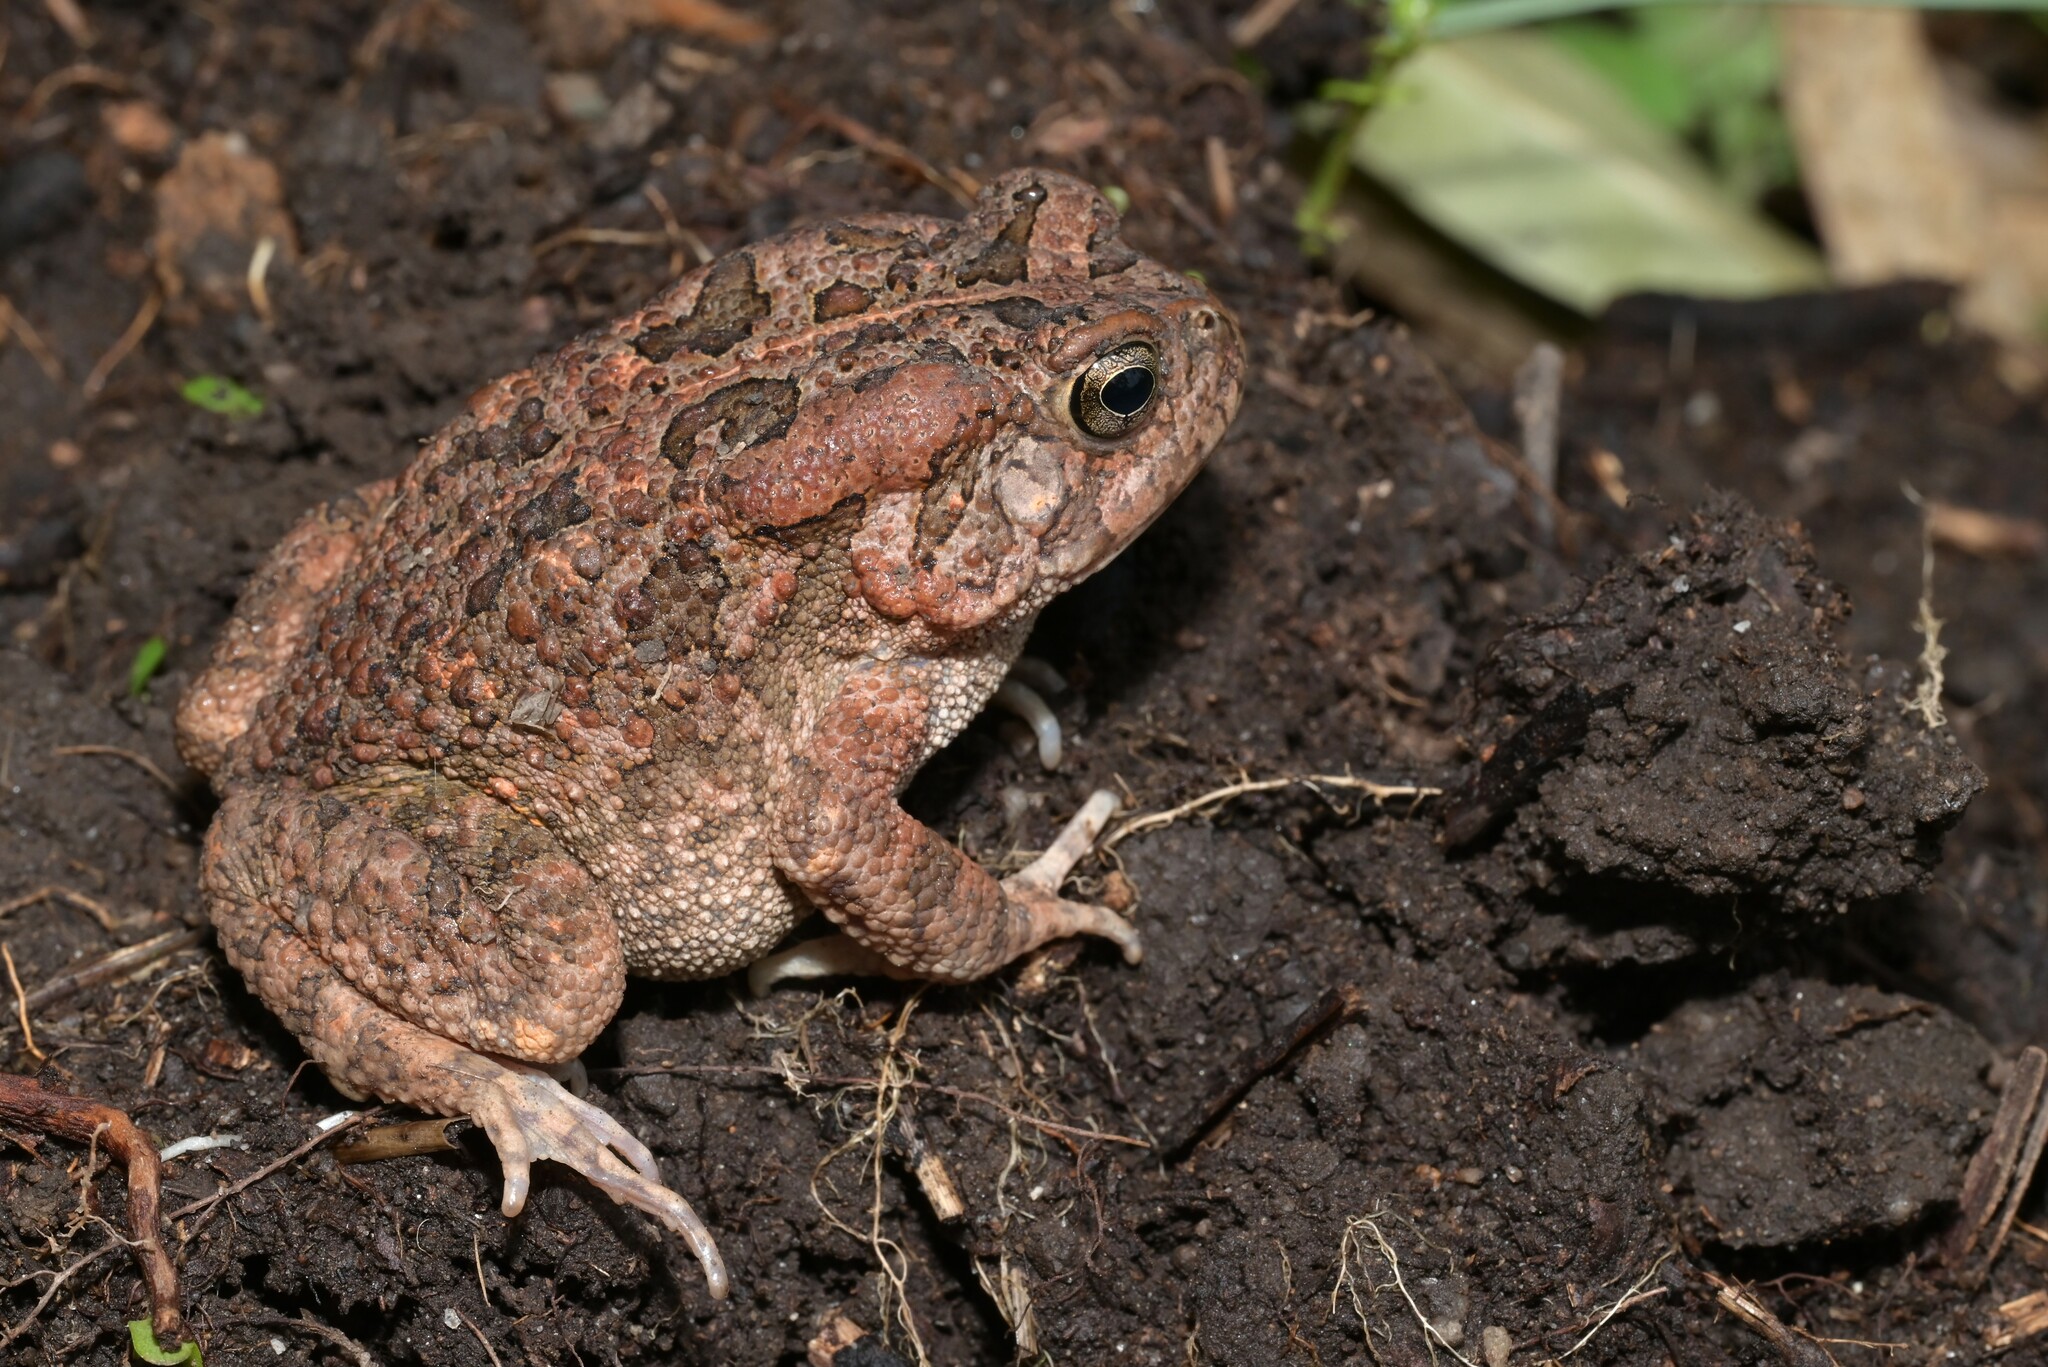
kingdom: Animalia
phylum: Chordata
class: Amphibia
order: Anura
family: Bufonidae
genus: Sclerophrys
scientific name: Sclerophrys gutturalis
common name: African common toad
